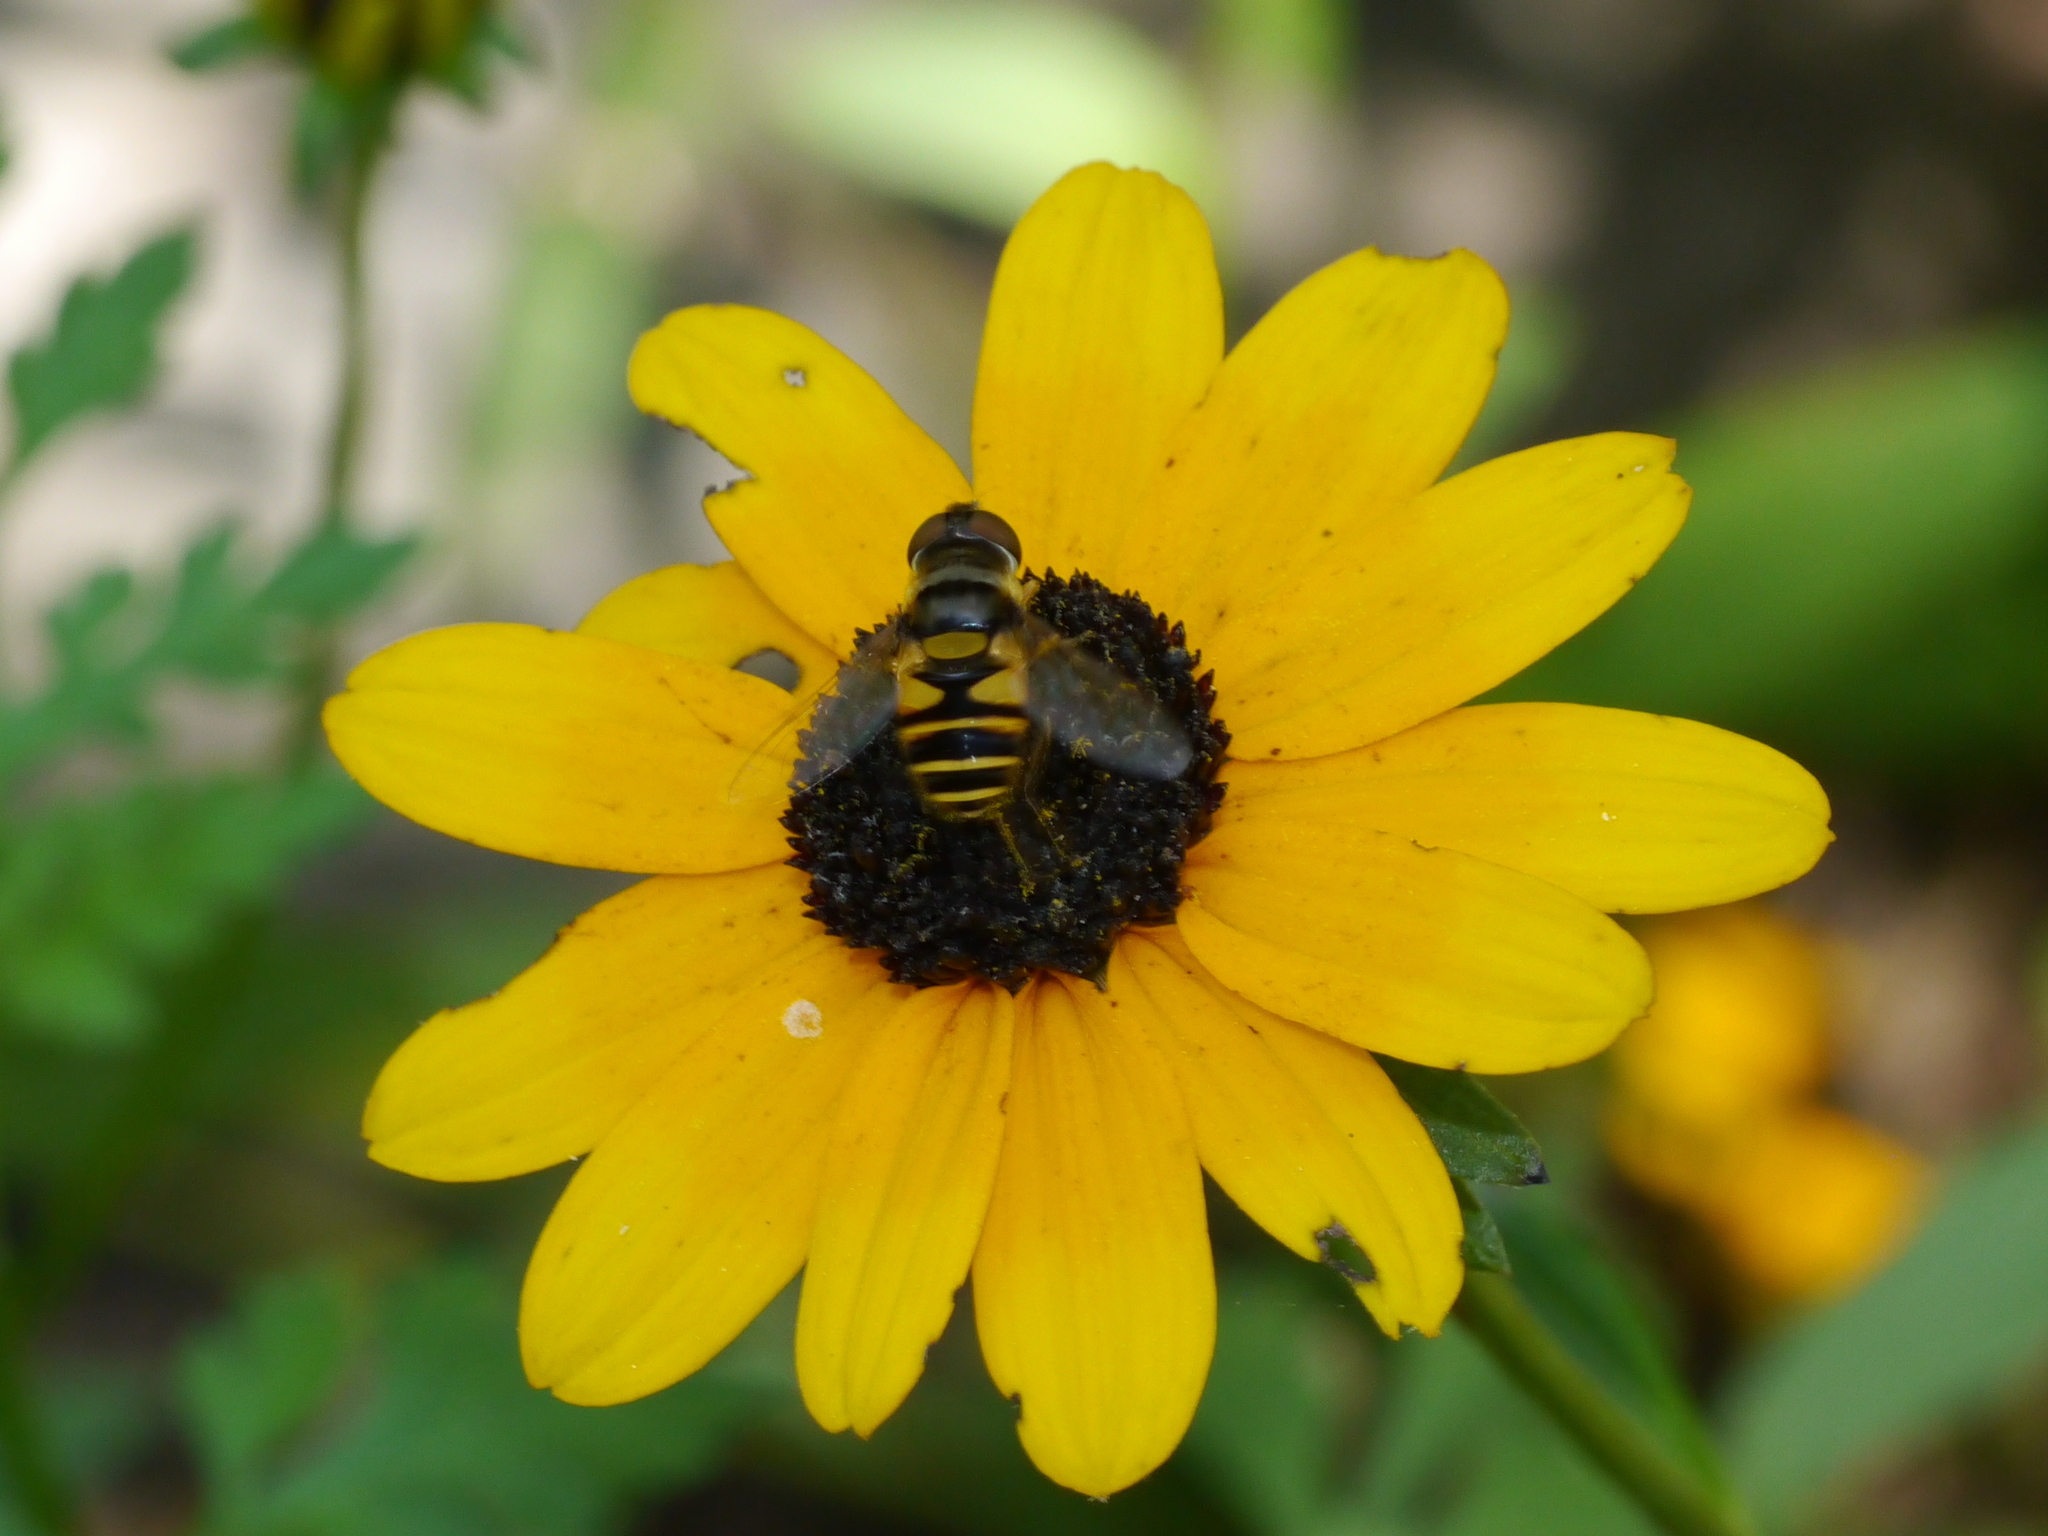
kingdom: Animalia
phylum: Arthropoda
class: Insecta
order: Diptera
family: Syrphidae
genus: Eristalis
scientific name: Eristalis transversa
